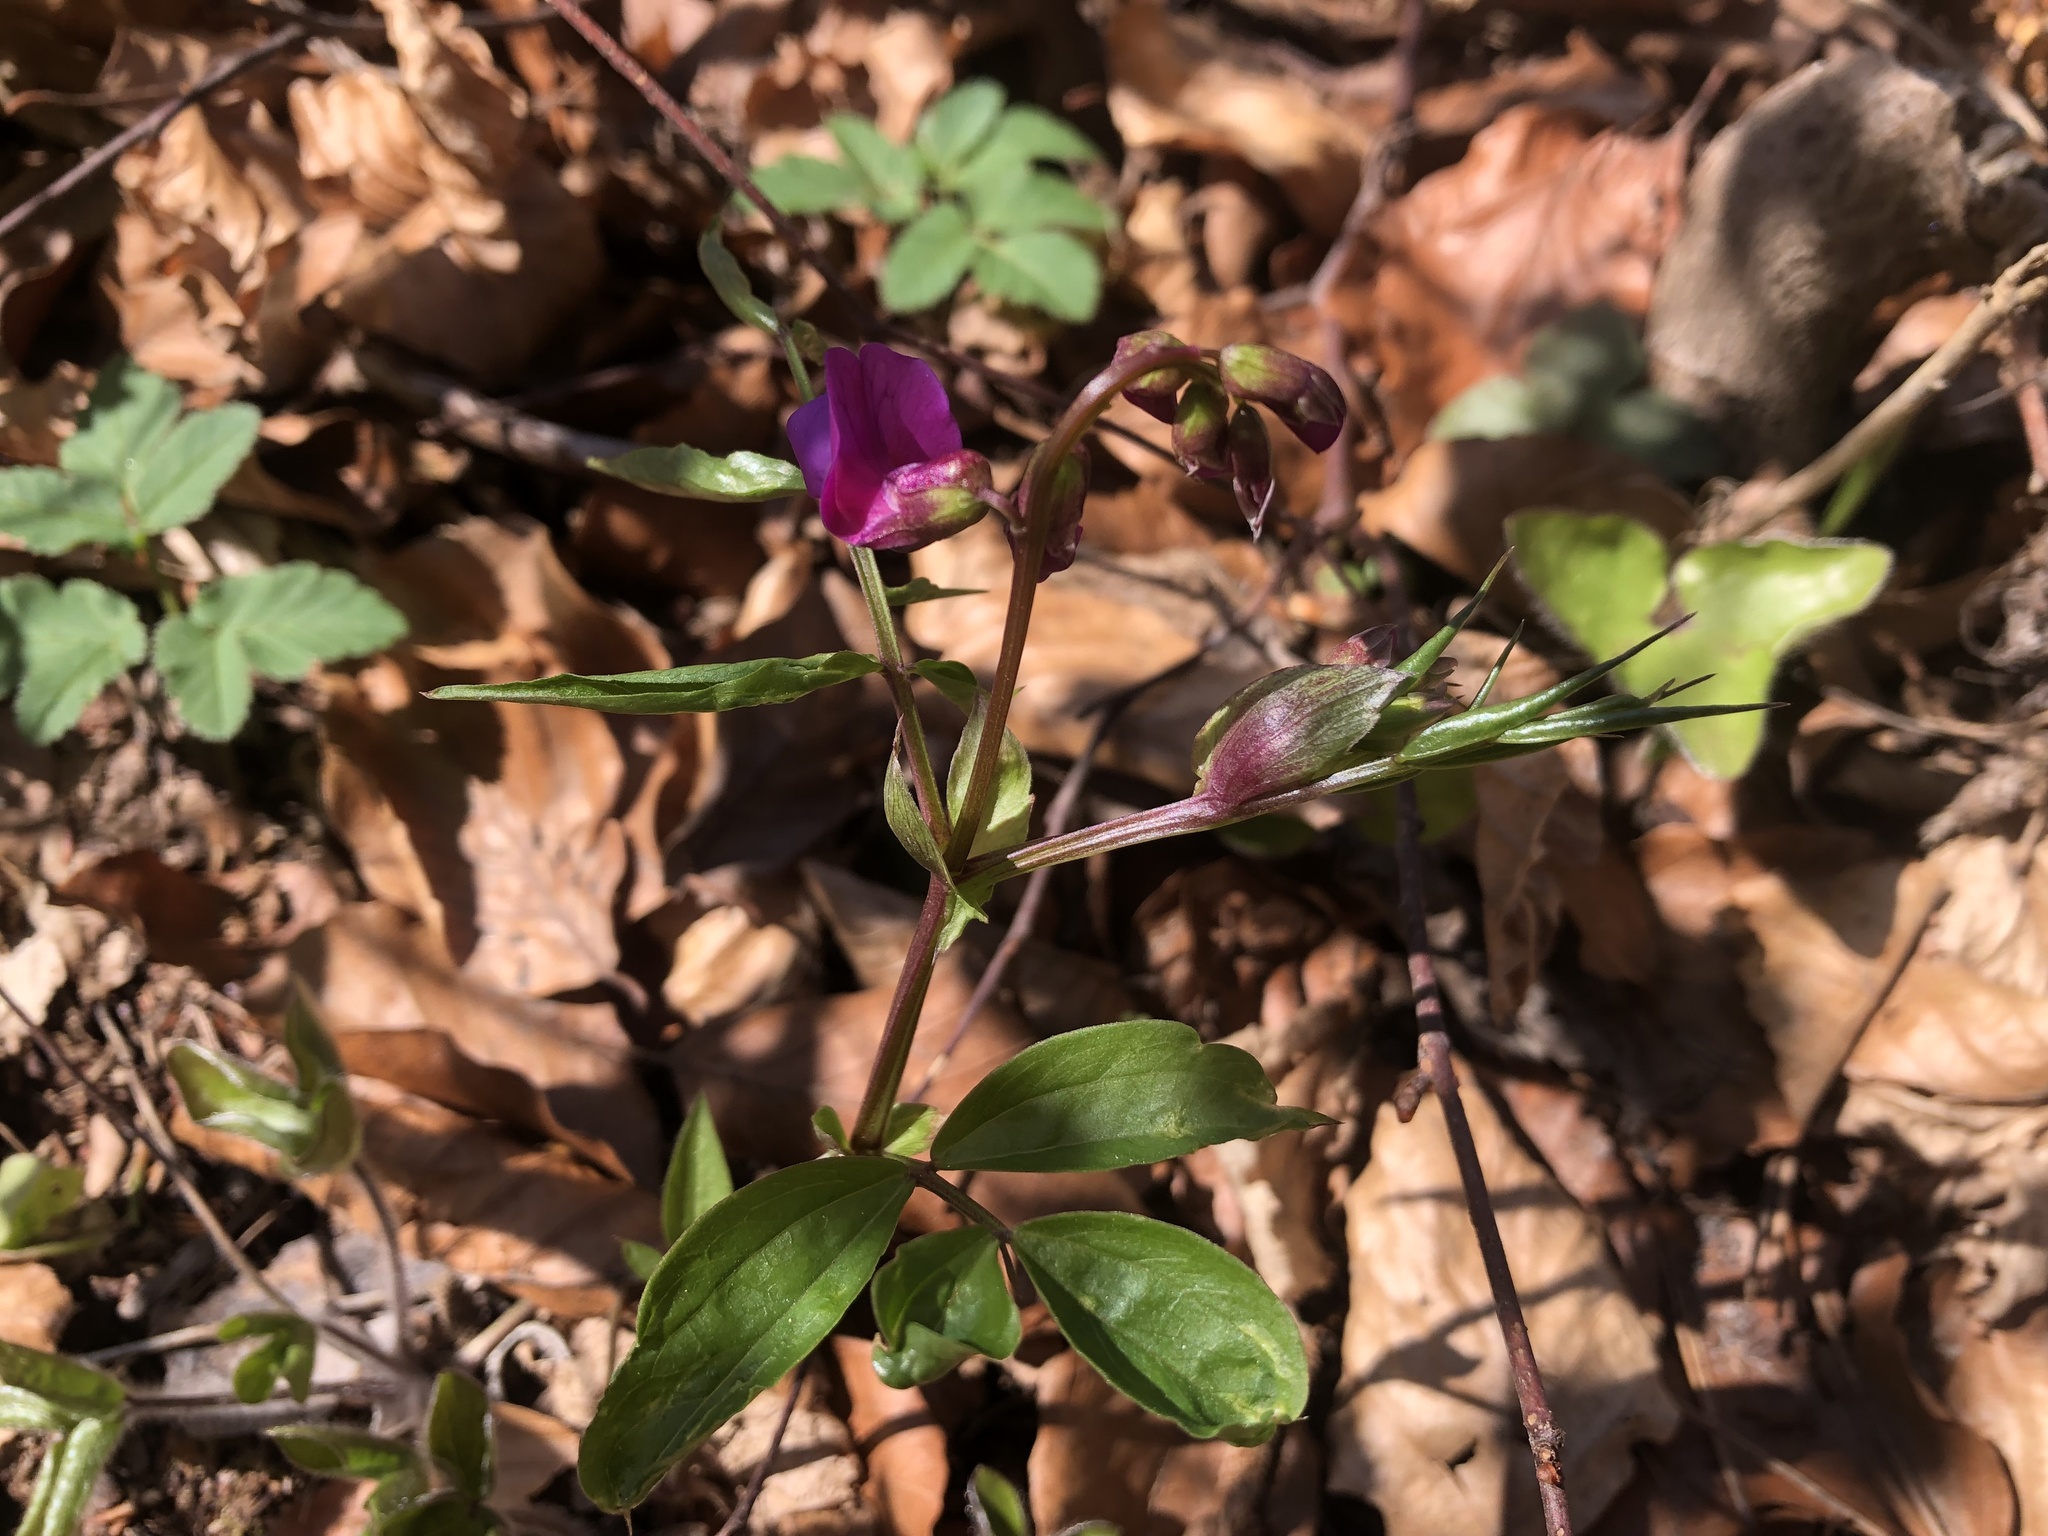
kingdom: Plantae
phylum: Tracheophyta
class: Magnoliopsida
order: Fabales
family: Fabaceae
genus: Lathyrus
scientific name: Lathyrus vernus
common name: Spring pea
